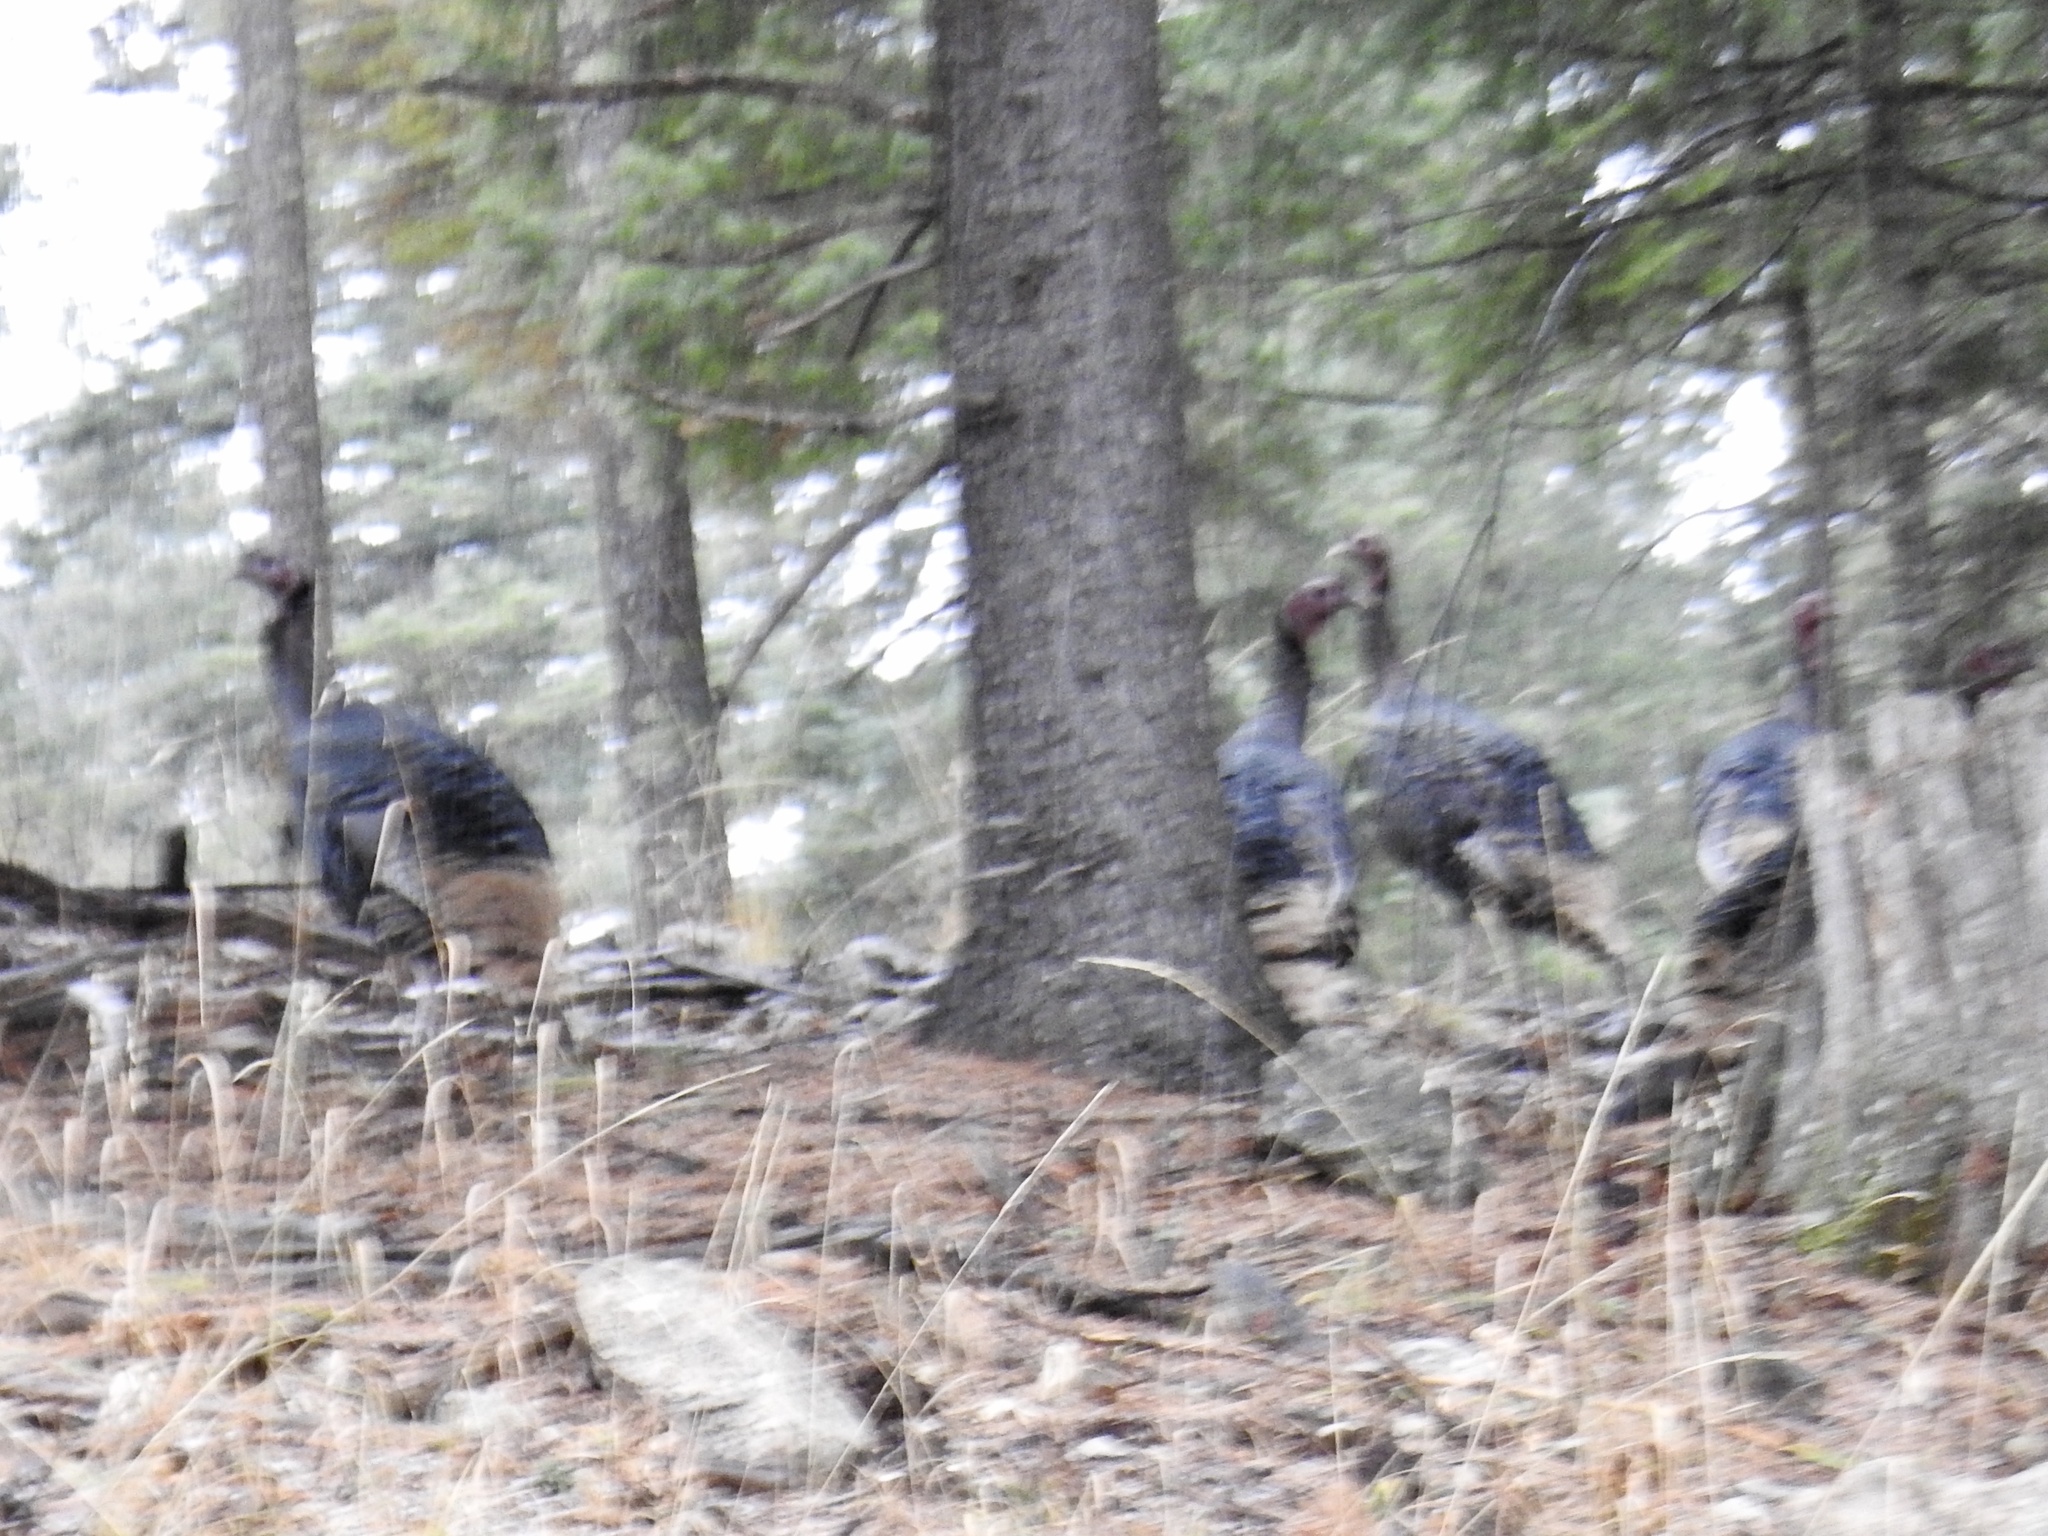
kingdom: Animalia
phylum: Chordata
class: Aves
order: Galliformes
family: Phasianidae
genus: Meleagris
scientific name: Meleagris gallopavo
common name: Wild turkey
